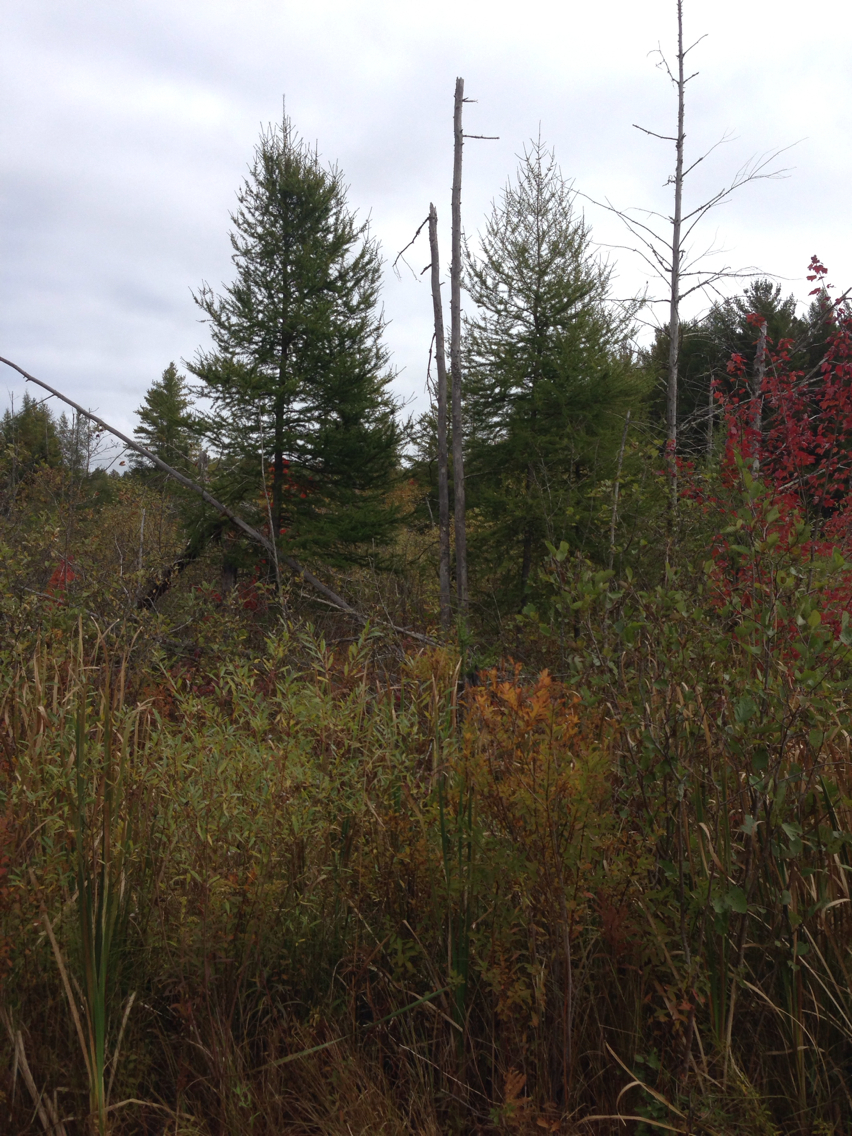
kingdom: Plantae
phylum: Tracheophyta
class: Pinopsida
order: Pinales
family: Pinaceae
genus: Larix
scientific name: Larix laricina
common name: American larch
